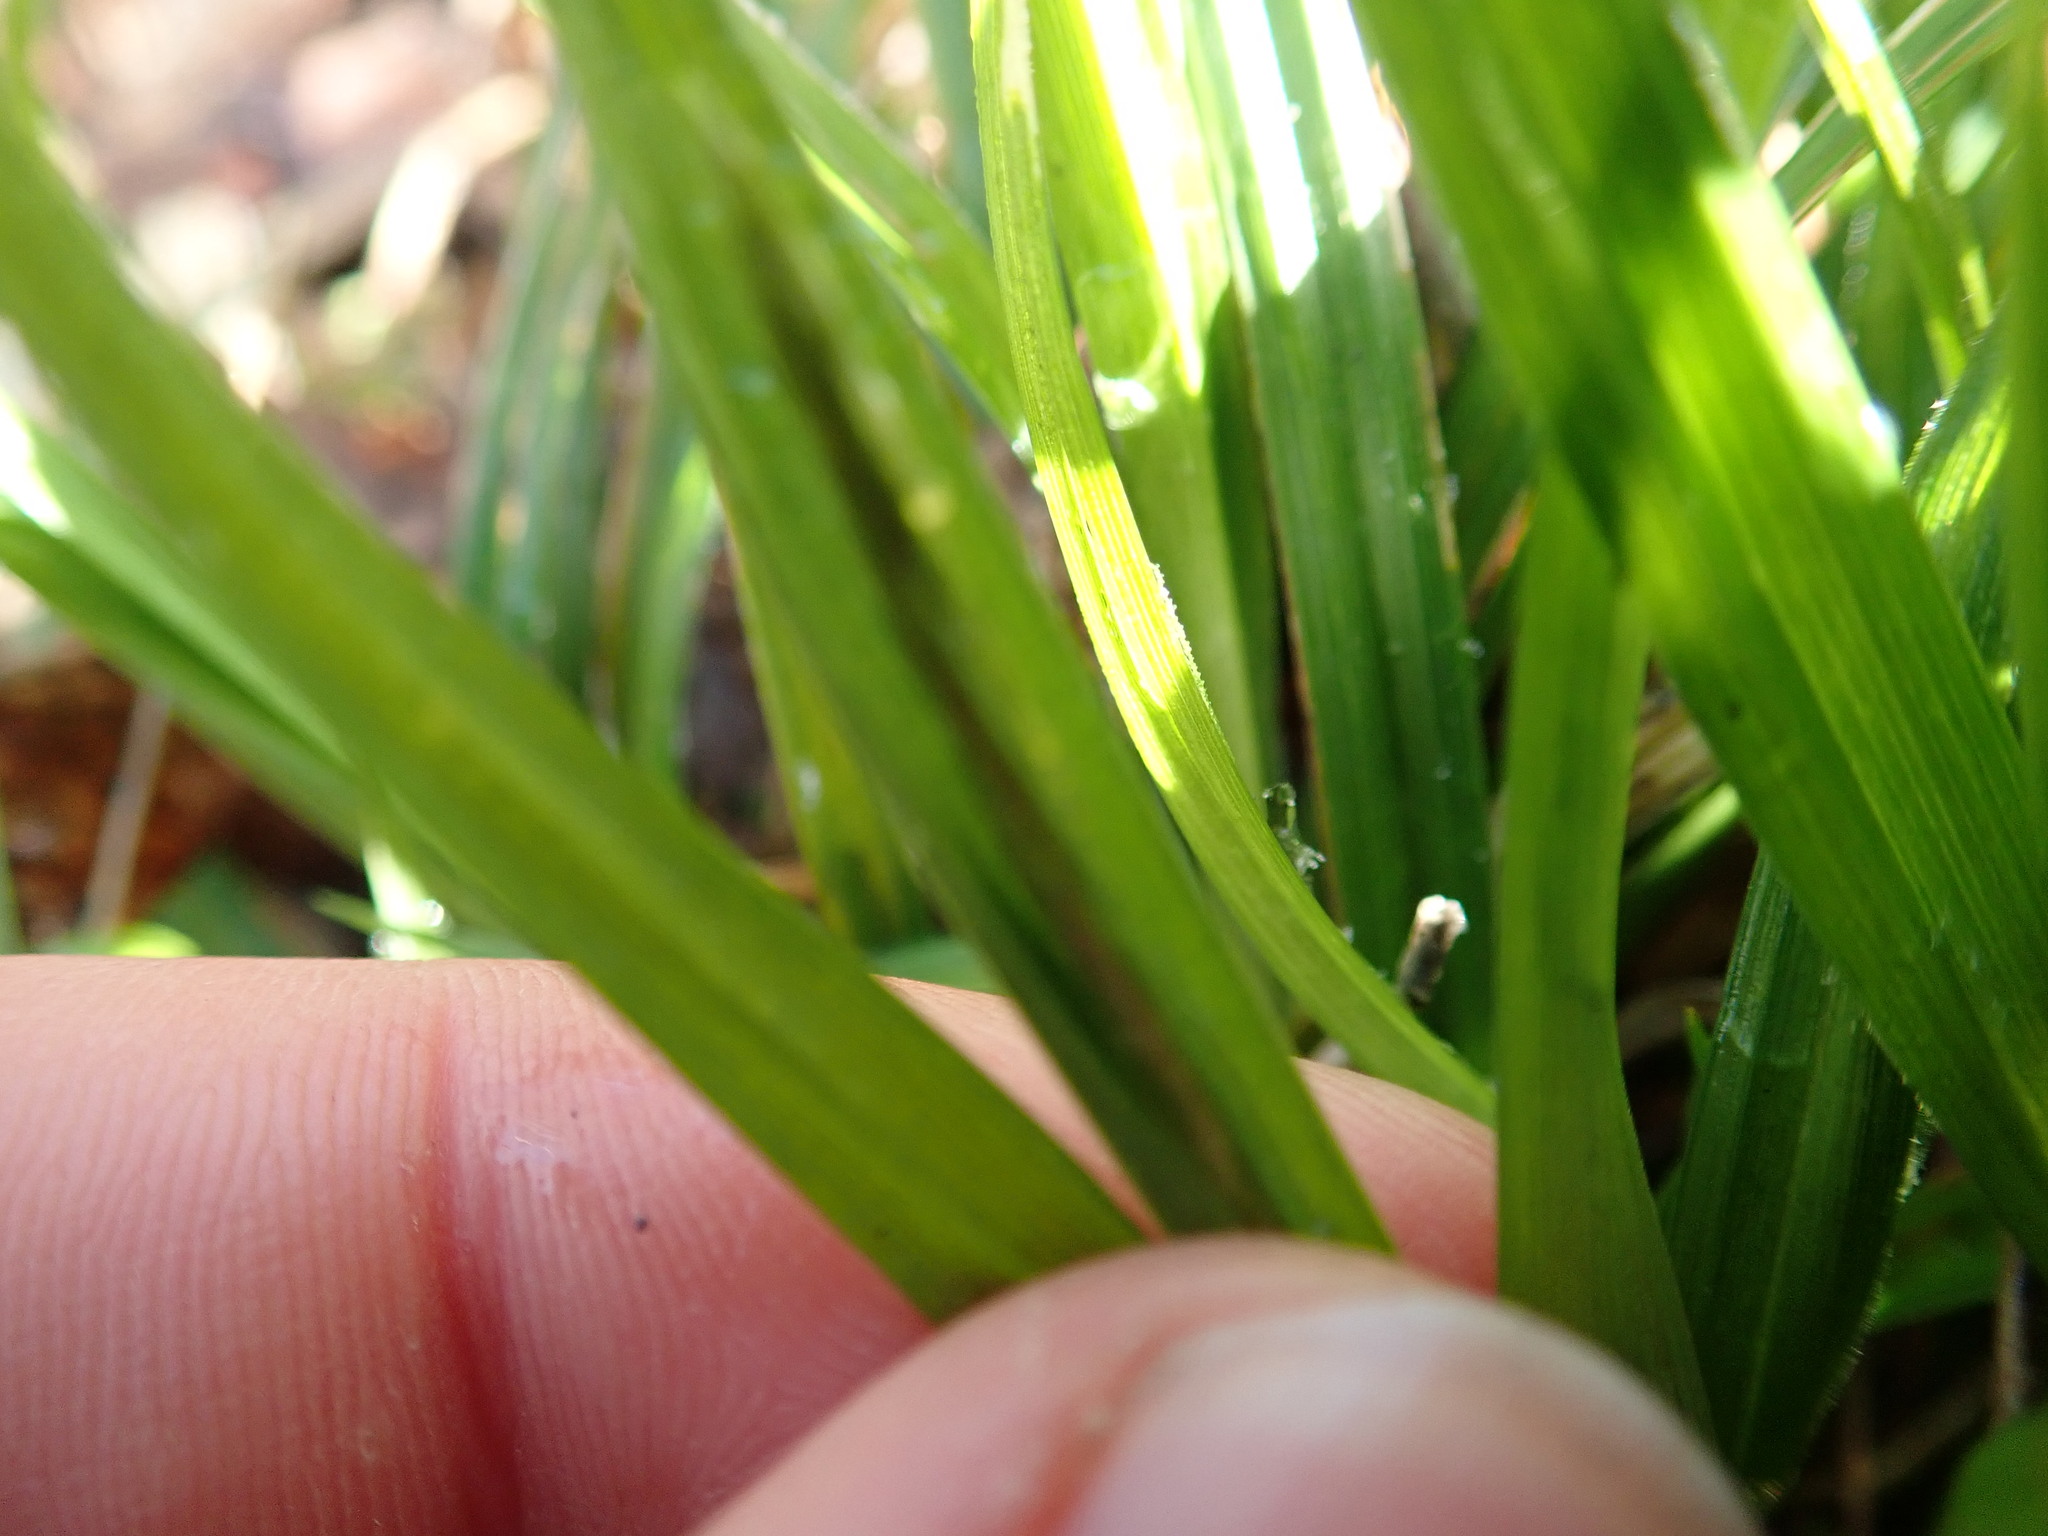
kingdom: Plantae
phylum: Tracheophyta
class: Liliopsida
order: Poales
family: Cyperaceae
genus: Carex
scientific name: Carex
